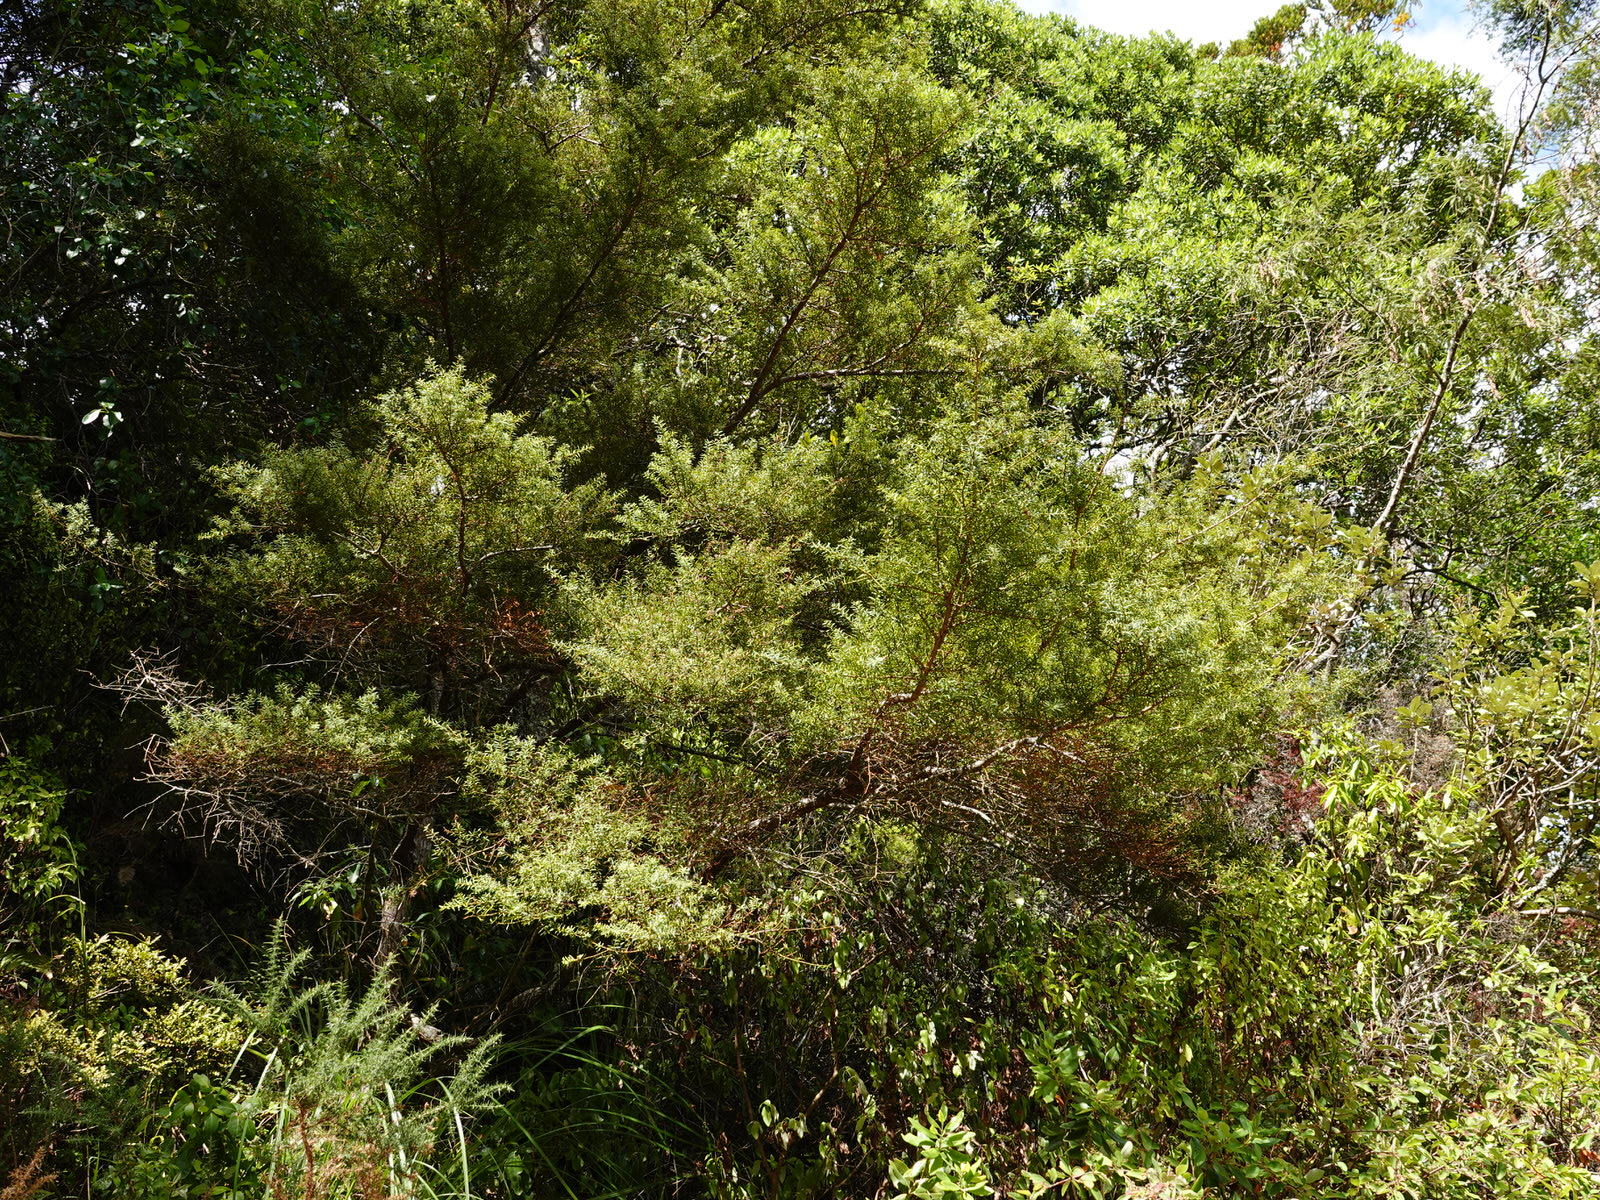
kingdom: Plantae
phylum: Tracheophyta
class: Pinopsida
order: Pinales
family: Podocarpaceae
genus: Podocarpus
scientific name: Podocarpus totara
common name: Totara
